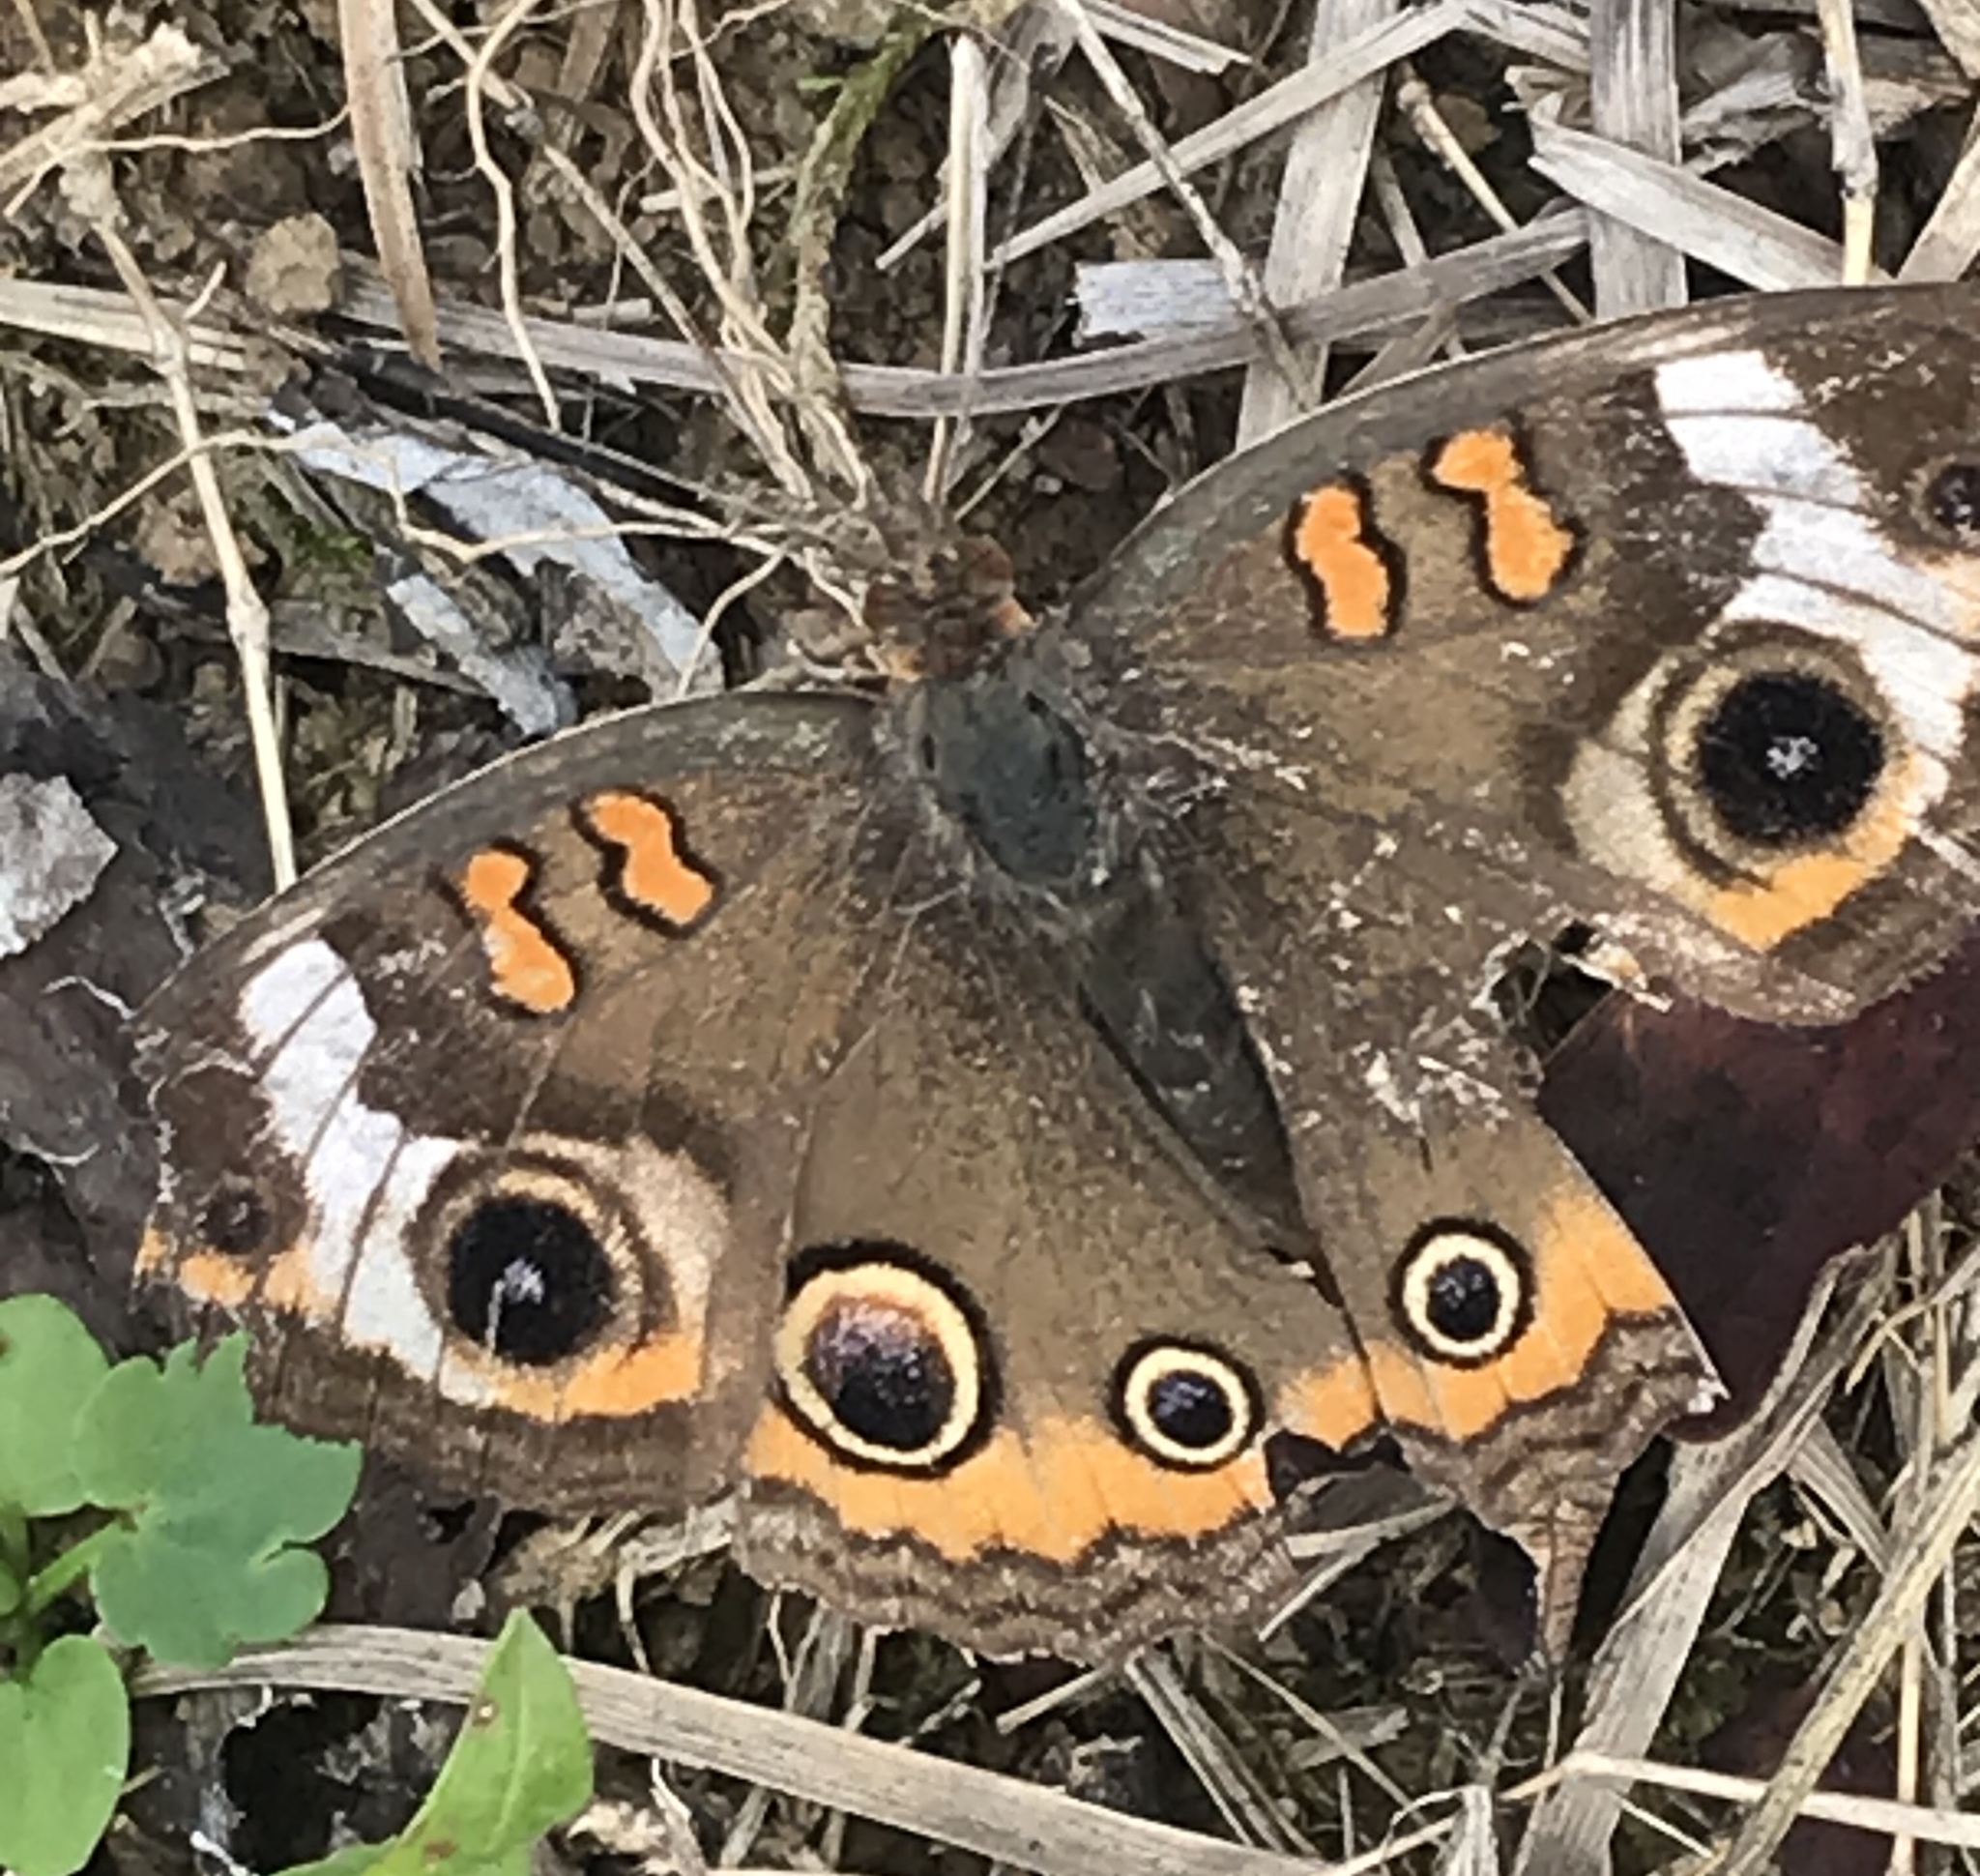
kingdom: Animalia
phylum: Arthropoda
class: Insecta
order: Lepidoptera
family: Nymphalidae
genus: Junonia
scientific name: Junonia coenia
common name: Common buckeye
